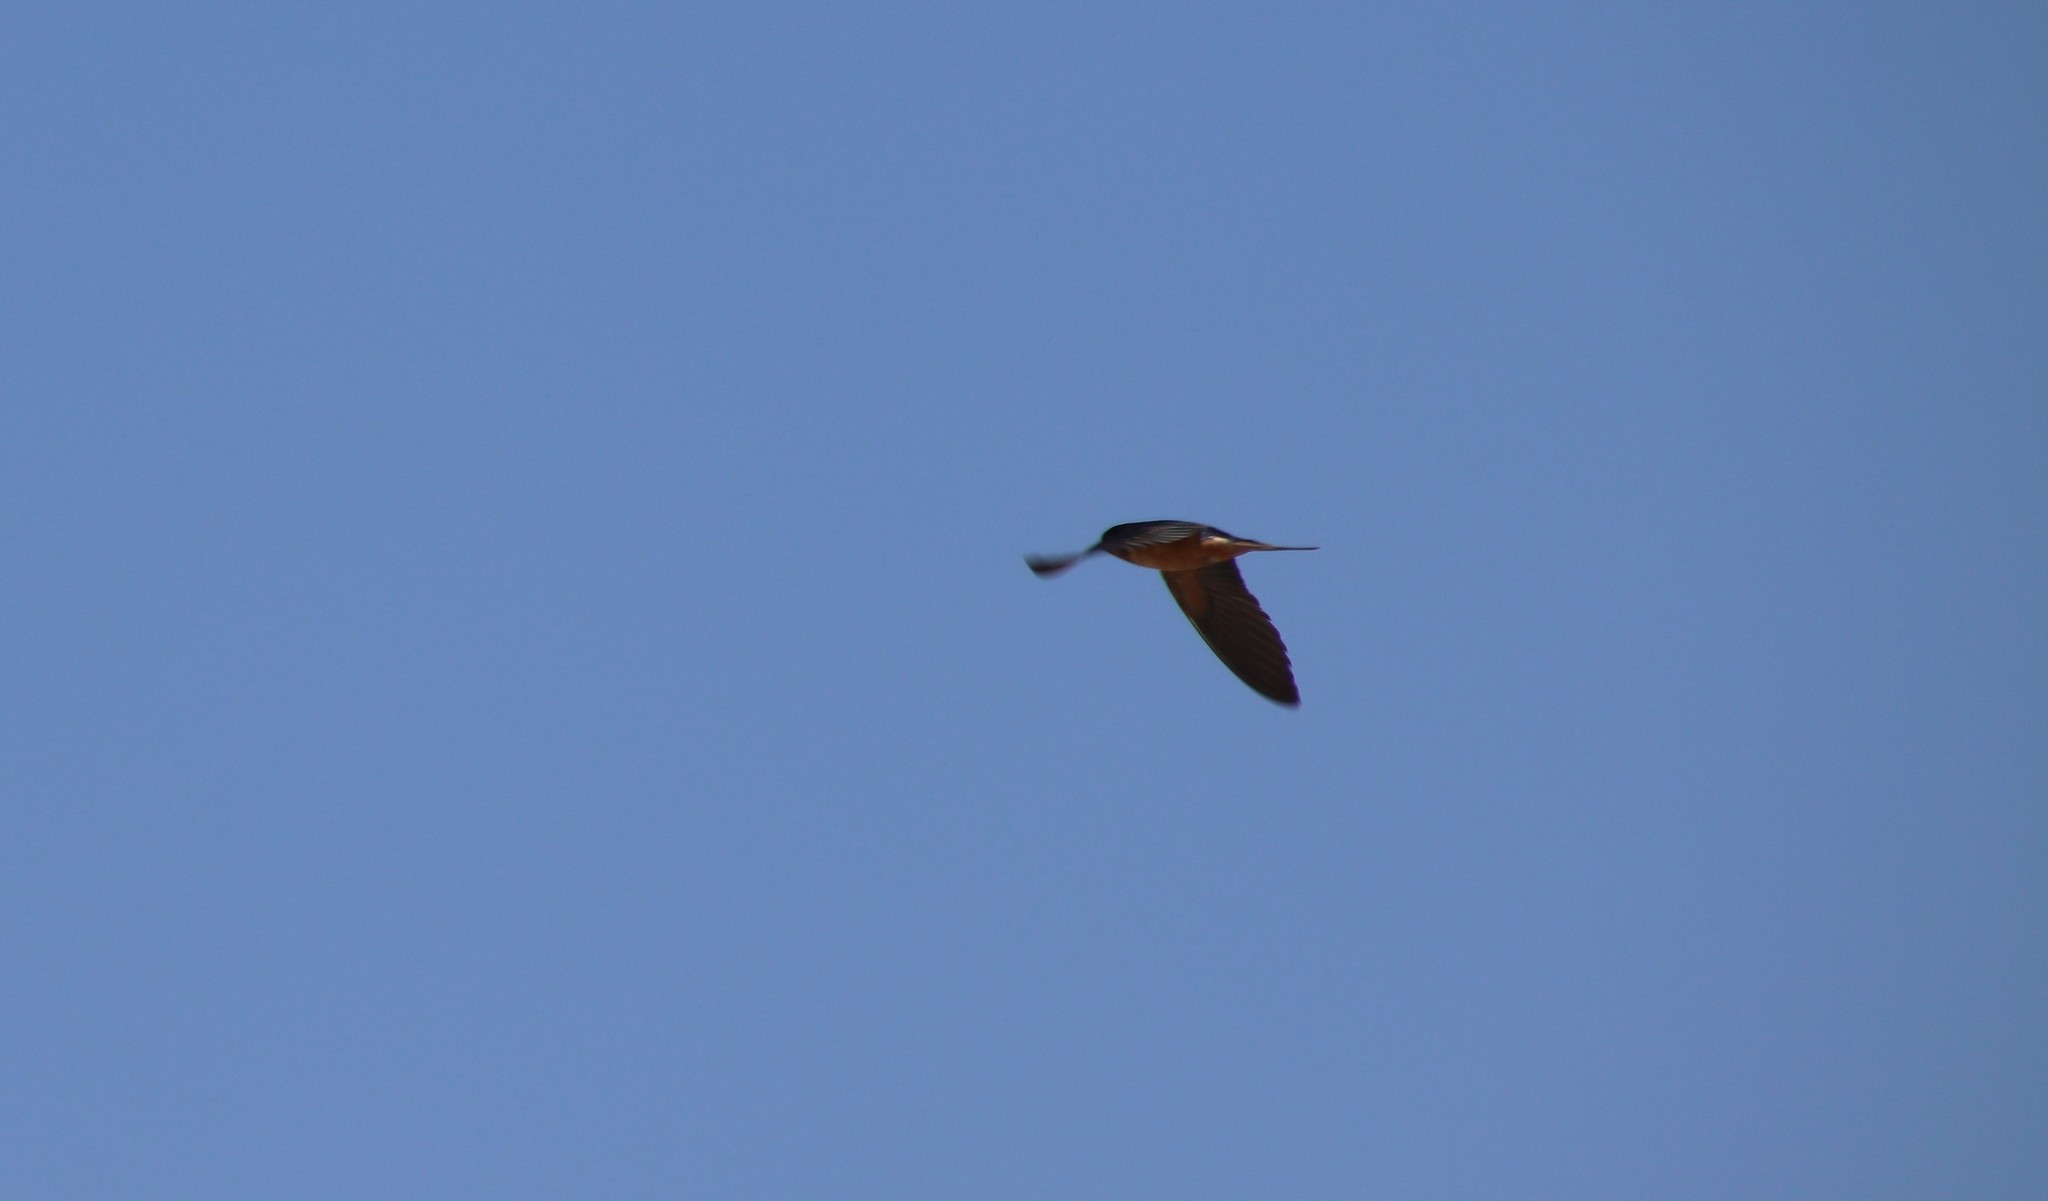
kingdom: Animalia
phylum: Chordata
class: Aves
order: Passeriformes
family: Hirundinidae
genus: Hirundo
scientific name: Hirundo rustica
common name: Barn swallow
